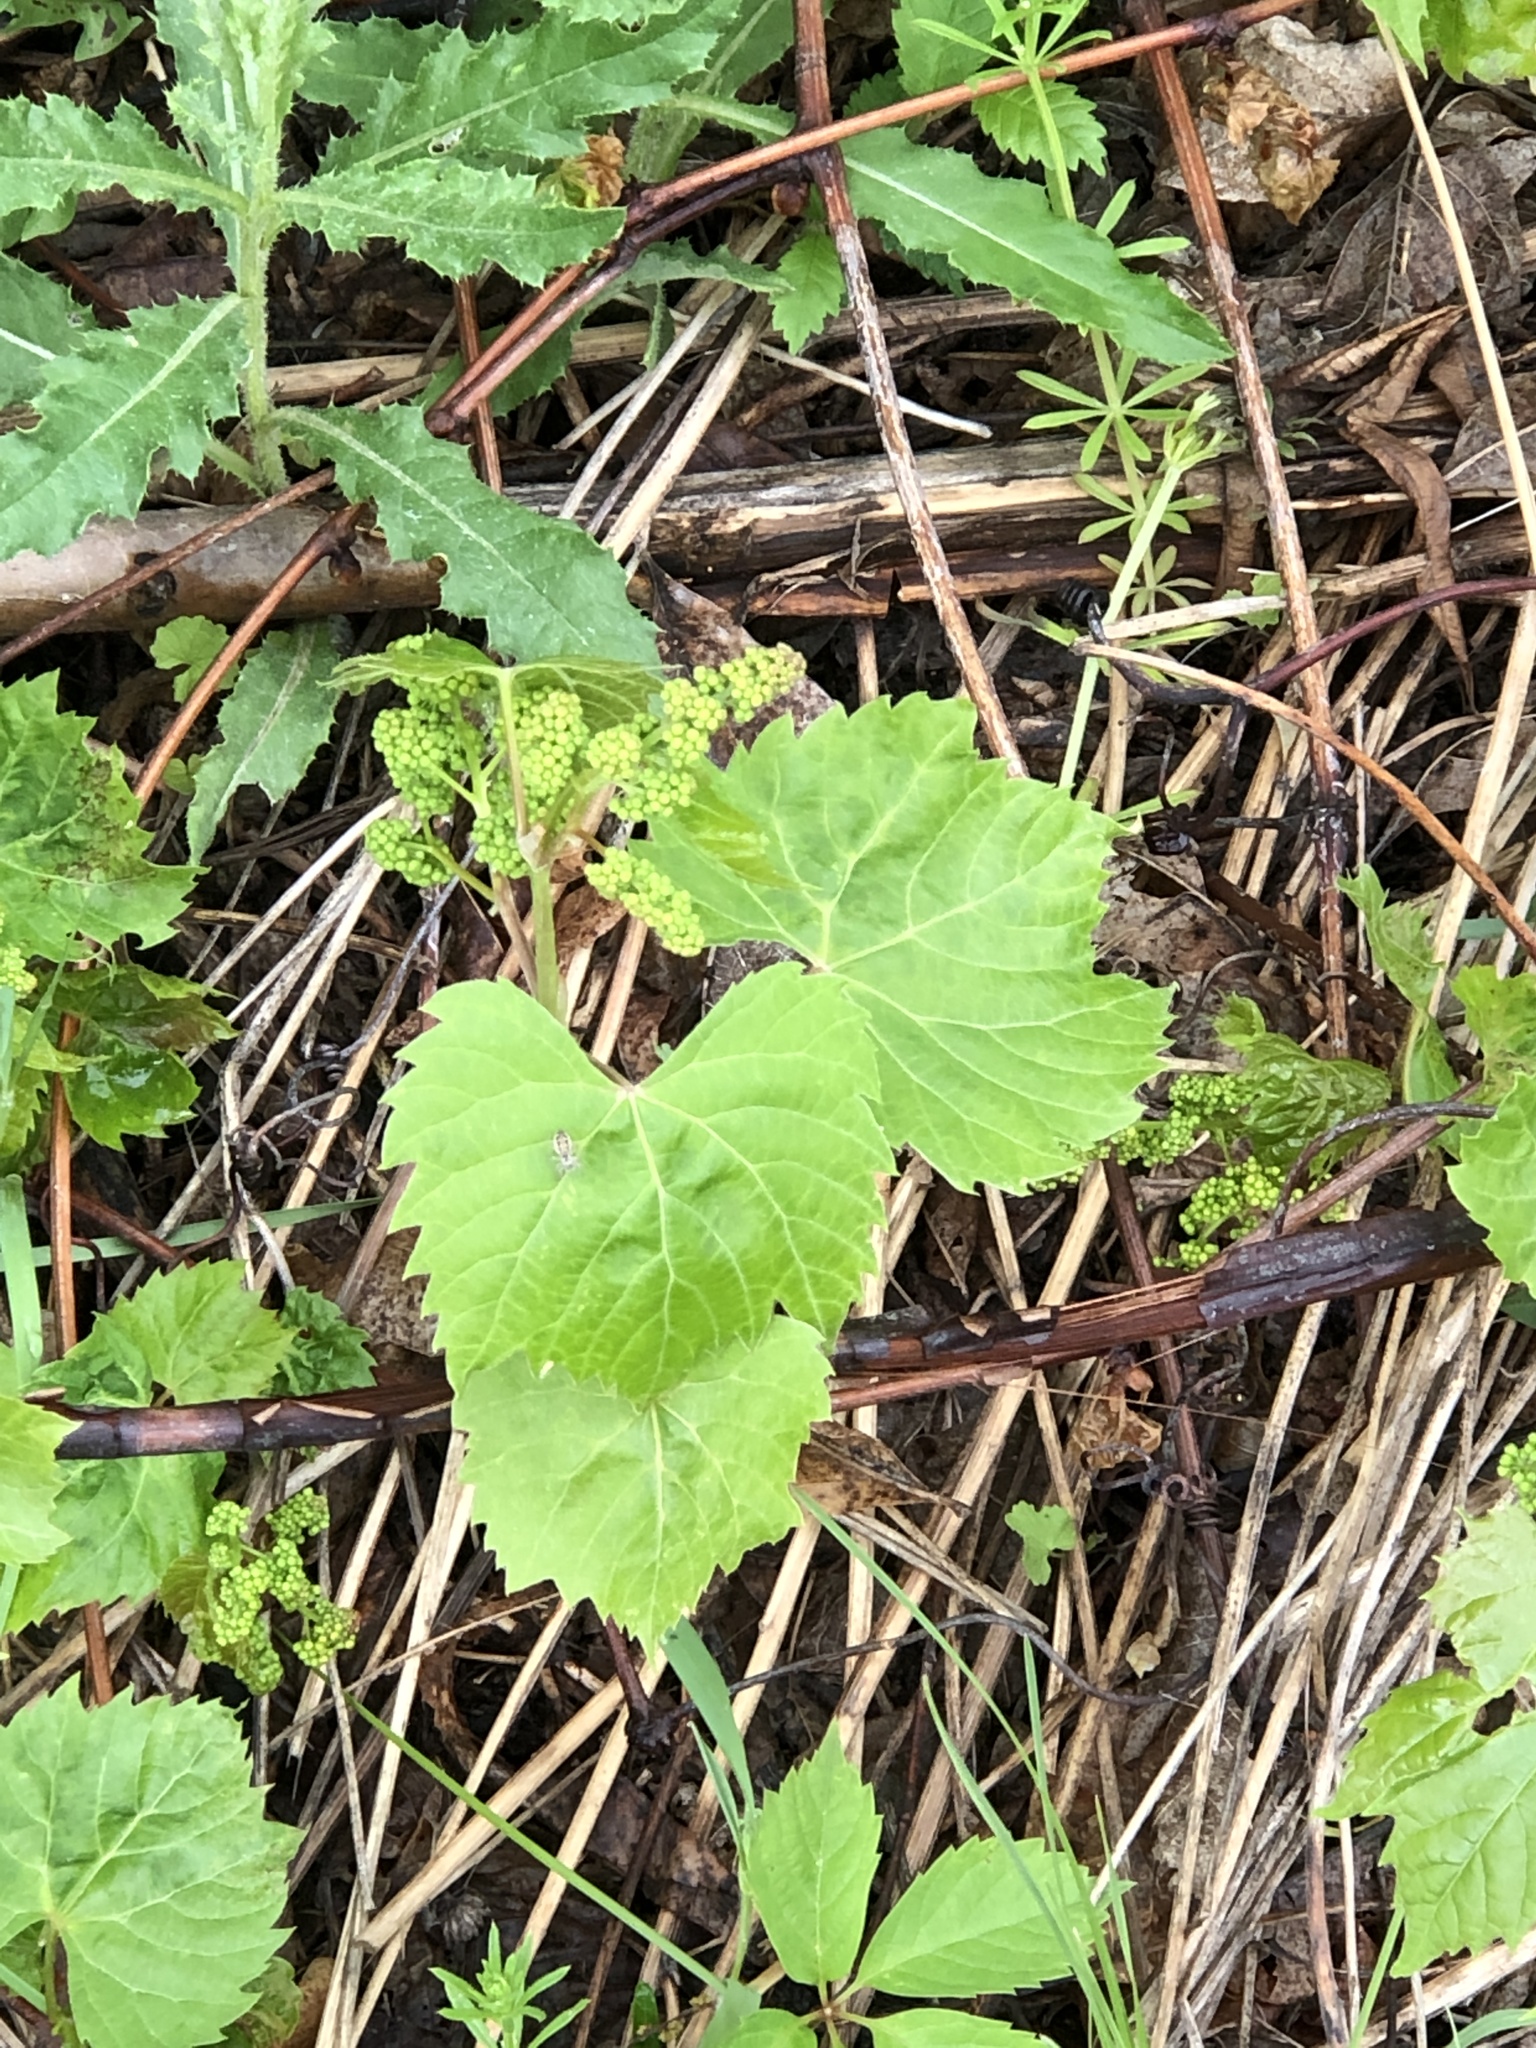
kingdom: Plantae
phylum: Tracheophyta
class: Magnoliopsida
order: Vitales
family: Vitaceae
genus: Vitis
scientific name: Vitis riparia
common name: Frost grape
